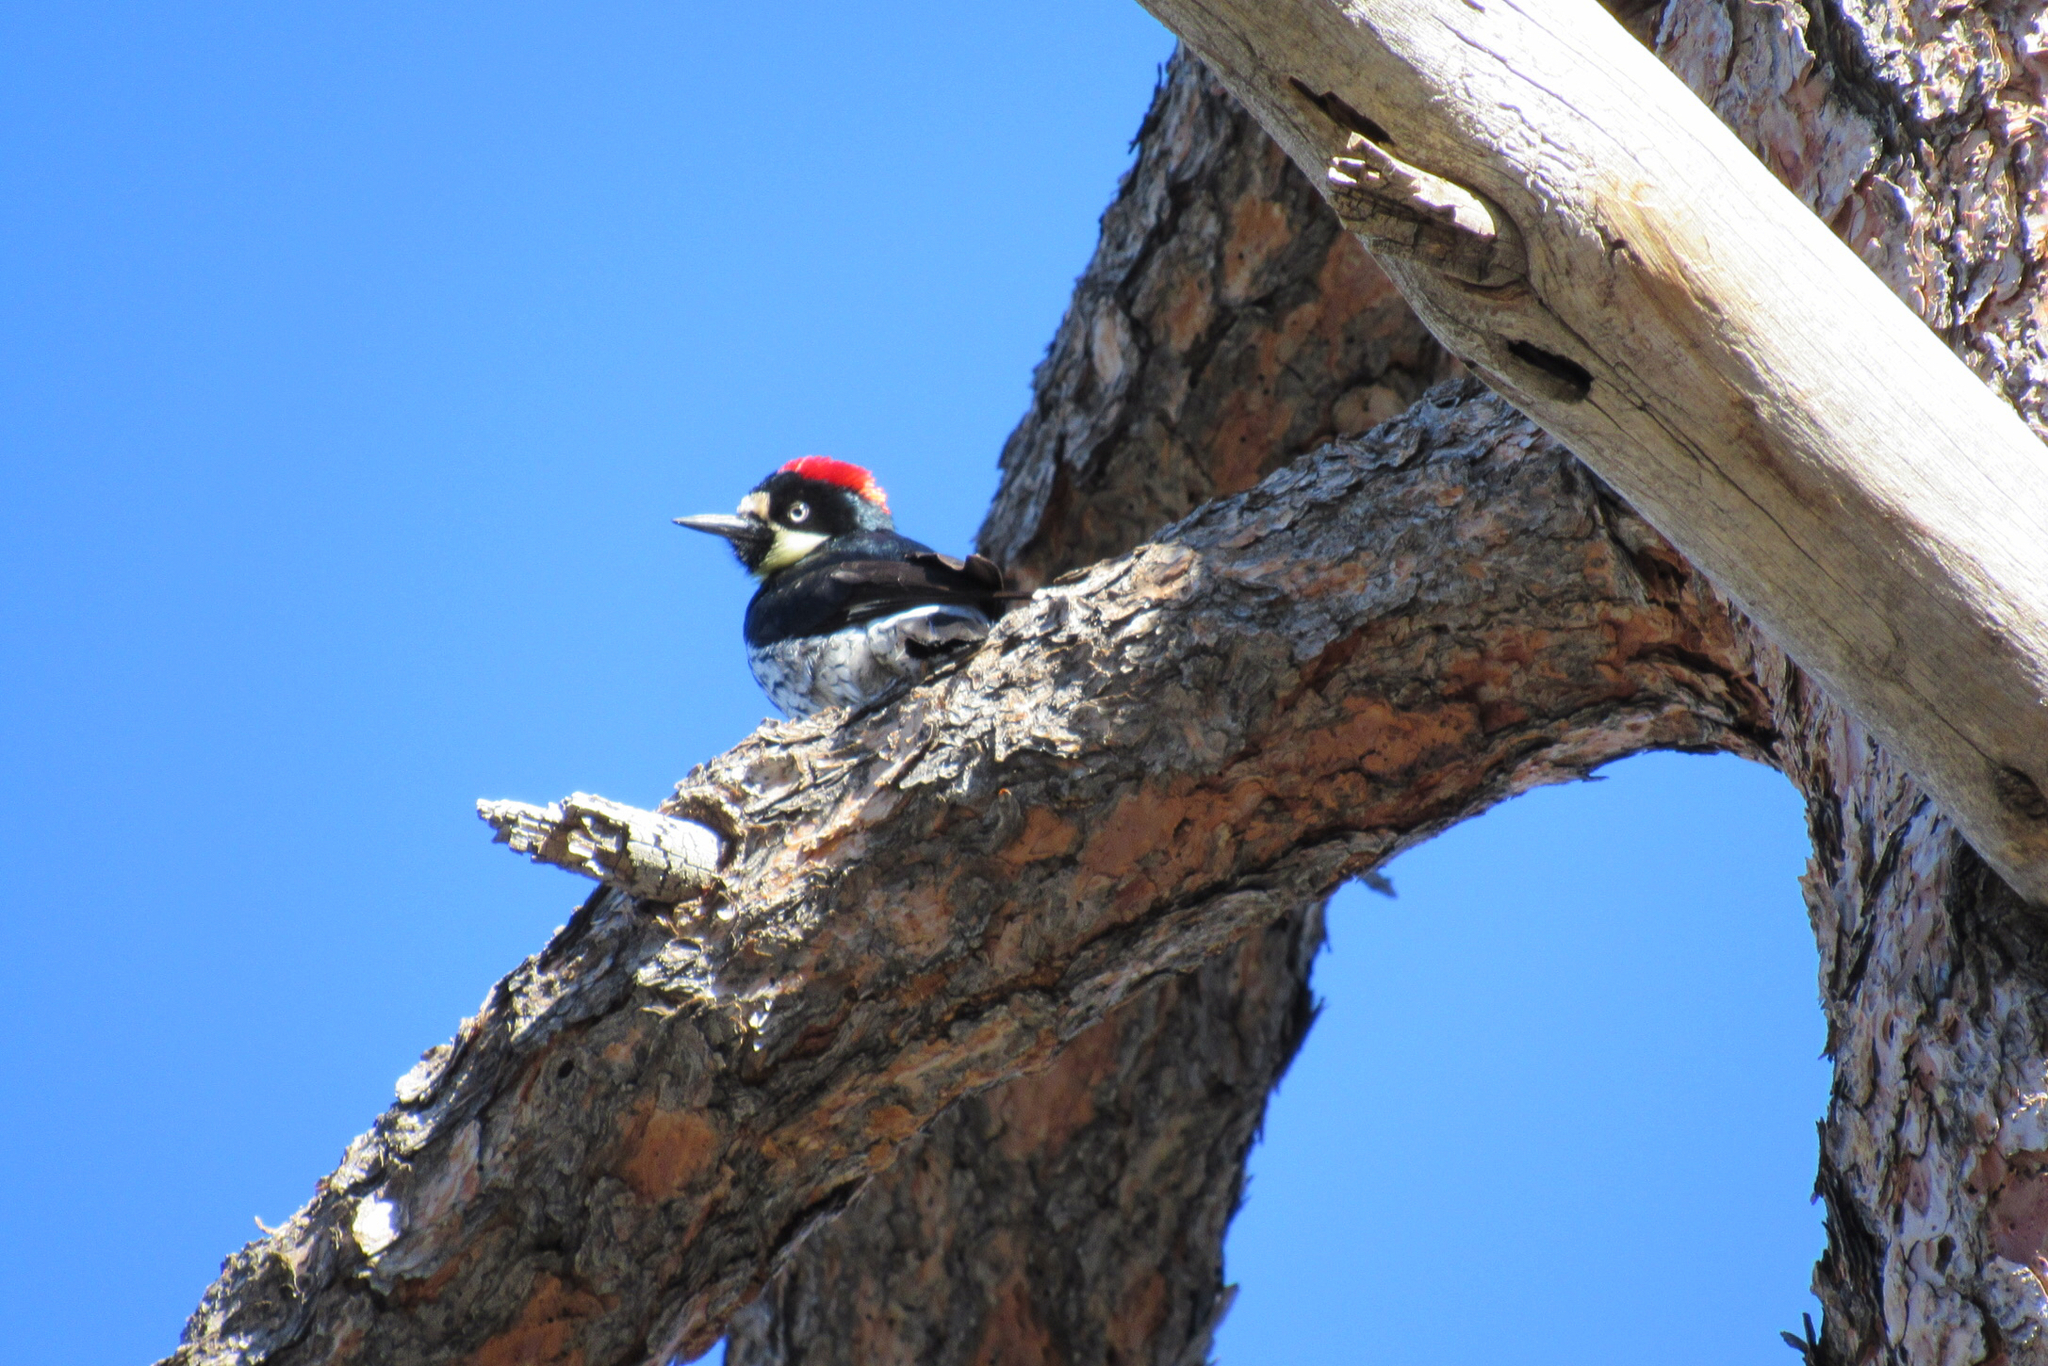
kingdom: Animalia
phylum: Chordata
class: Aves
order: Piciformes
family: Picidae
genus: Melanerpes
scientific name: Melanerpes formicivorus
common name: Acorn woodpecker
